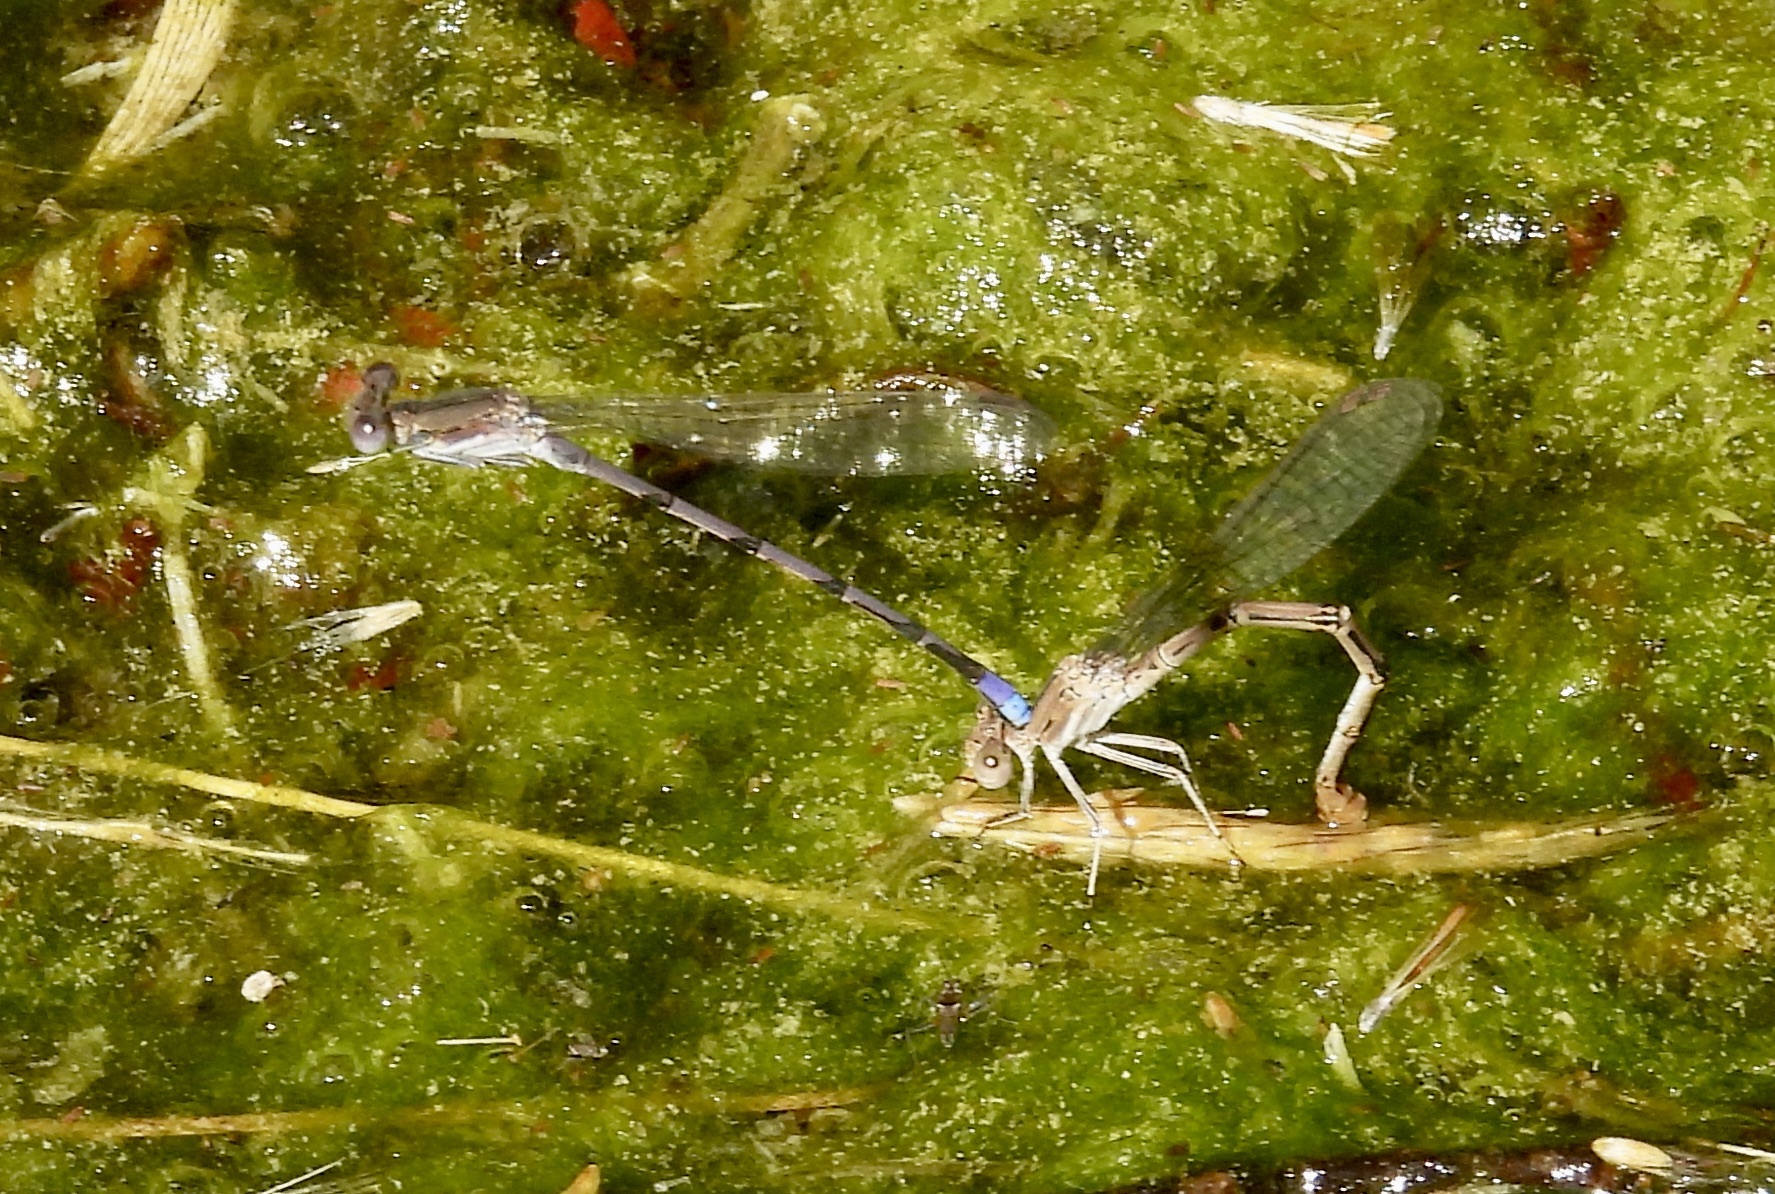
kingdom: Animalia
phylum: Arthropoda
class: Insecta
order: Odonata
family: Coenagrionidae
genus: Argia
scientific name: Argia fumipennis
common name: Variable dancer
